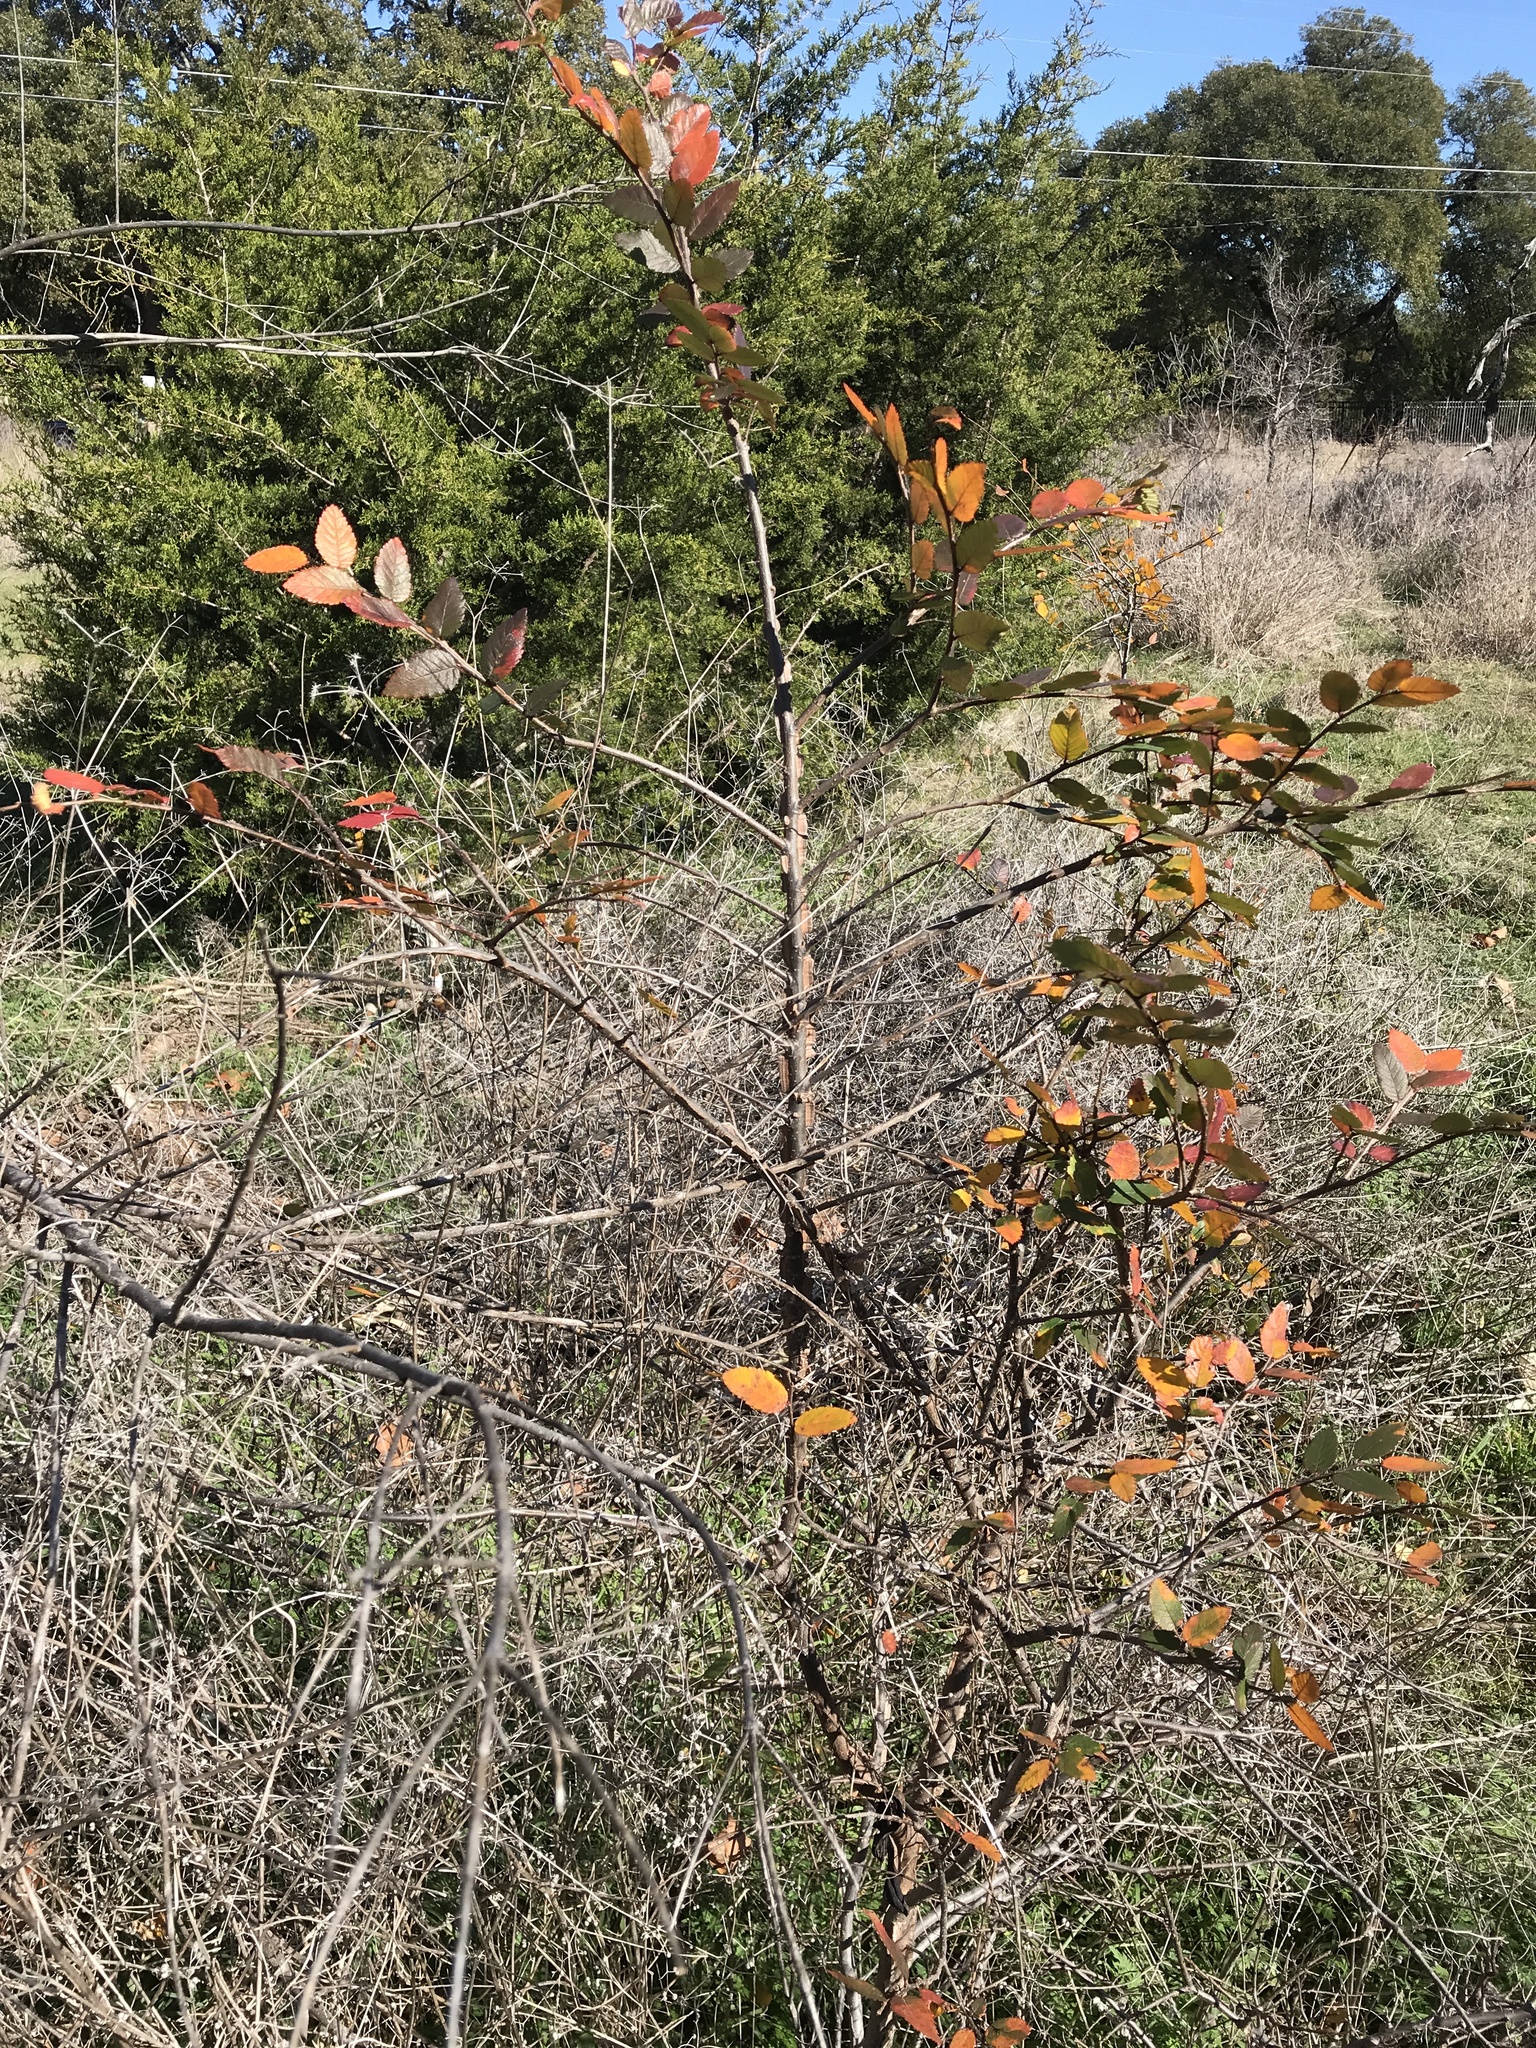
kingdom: Plantae
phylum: Tracheophyta
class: Magnoliopsida
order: Rosales
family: Ulmaceae
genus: Ulmus
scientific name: Ulmus crassifolia
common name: Basket elm
